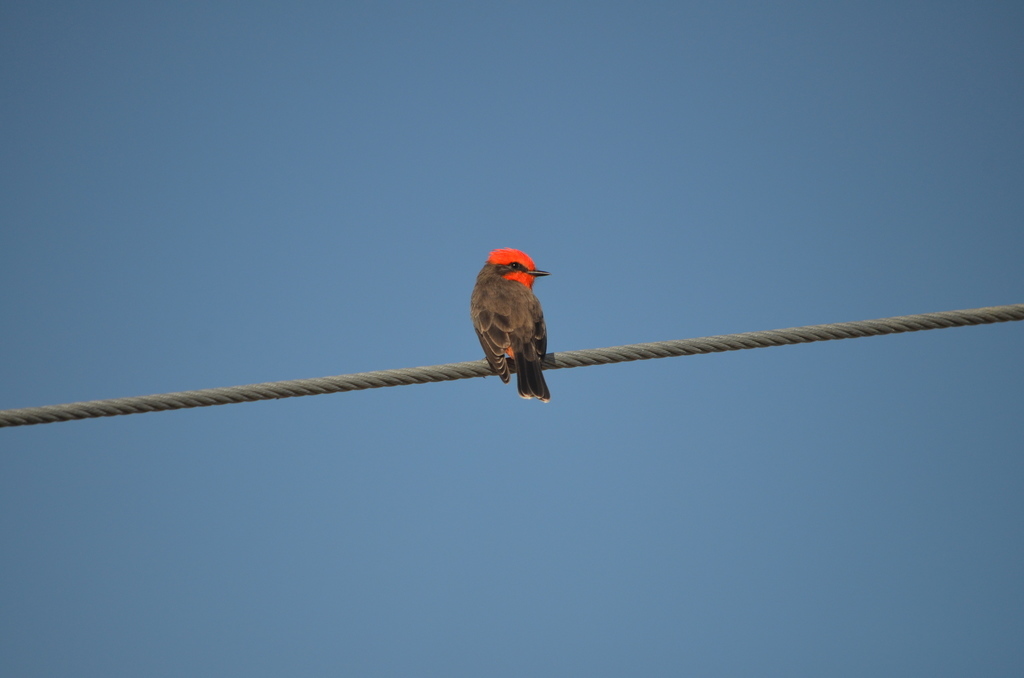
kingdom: Animalia
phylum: Chordata
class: Aves
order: Passeriformes
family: Tyrannidae
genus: Pyrocephalus
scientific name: Pyrocephalus rubinus
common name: Vermilion flycatcher
